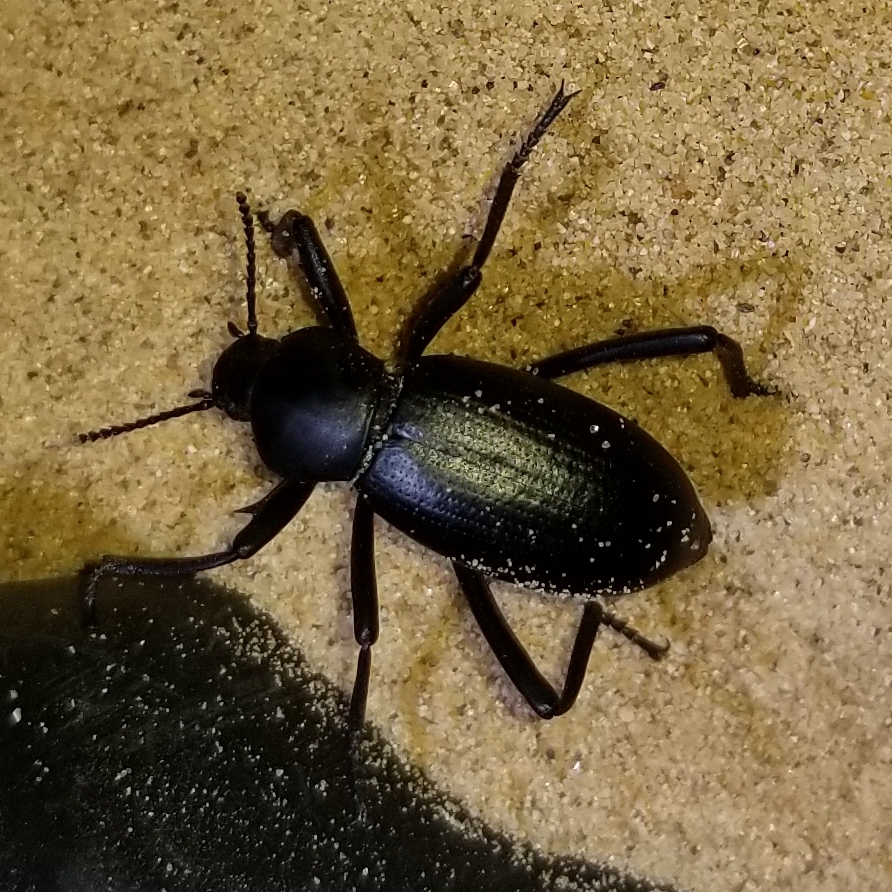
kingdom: Animalia
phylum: Arthropoda
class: Insecta
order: Coleoptera
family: Tenebrionidae
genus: Eleodes
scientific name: Eleodes armata
